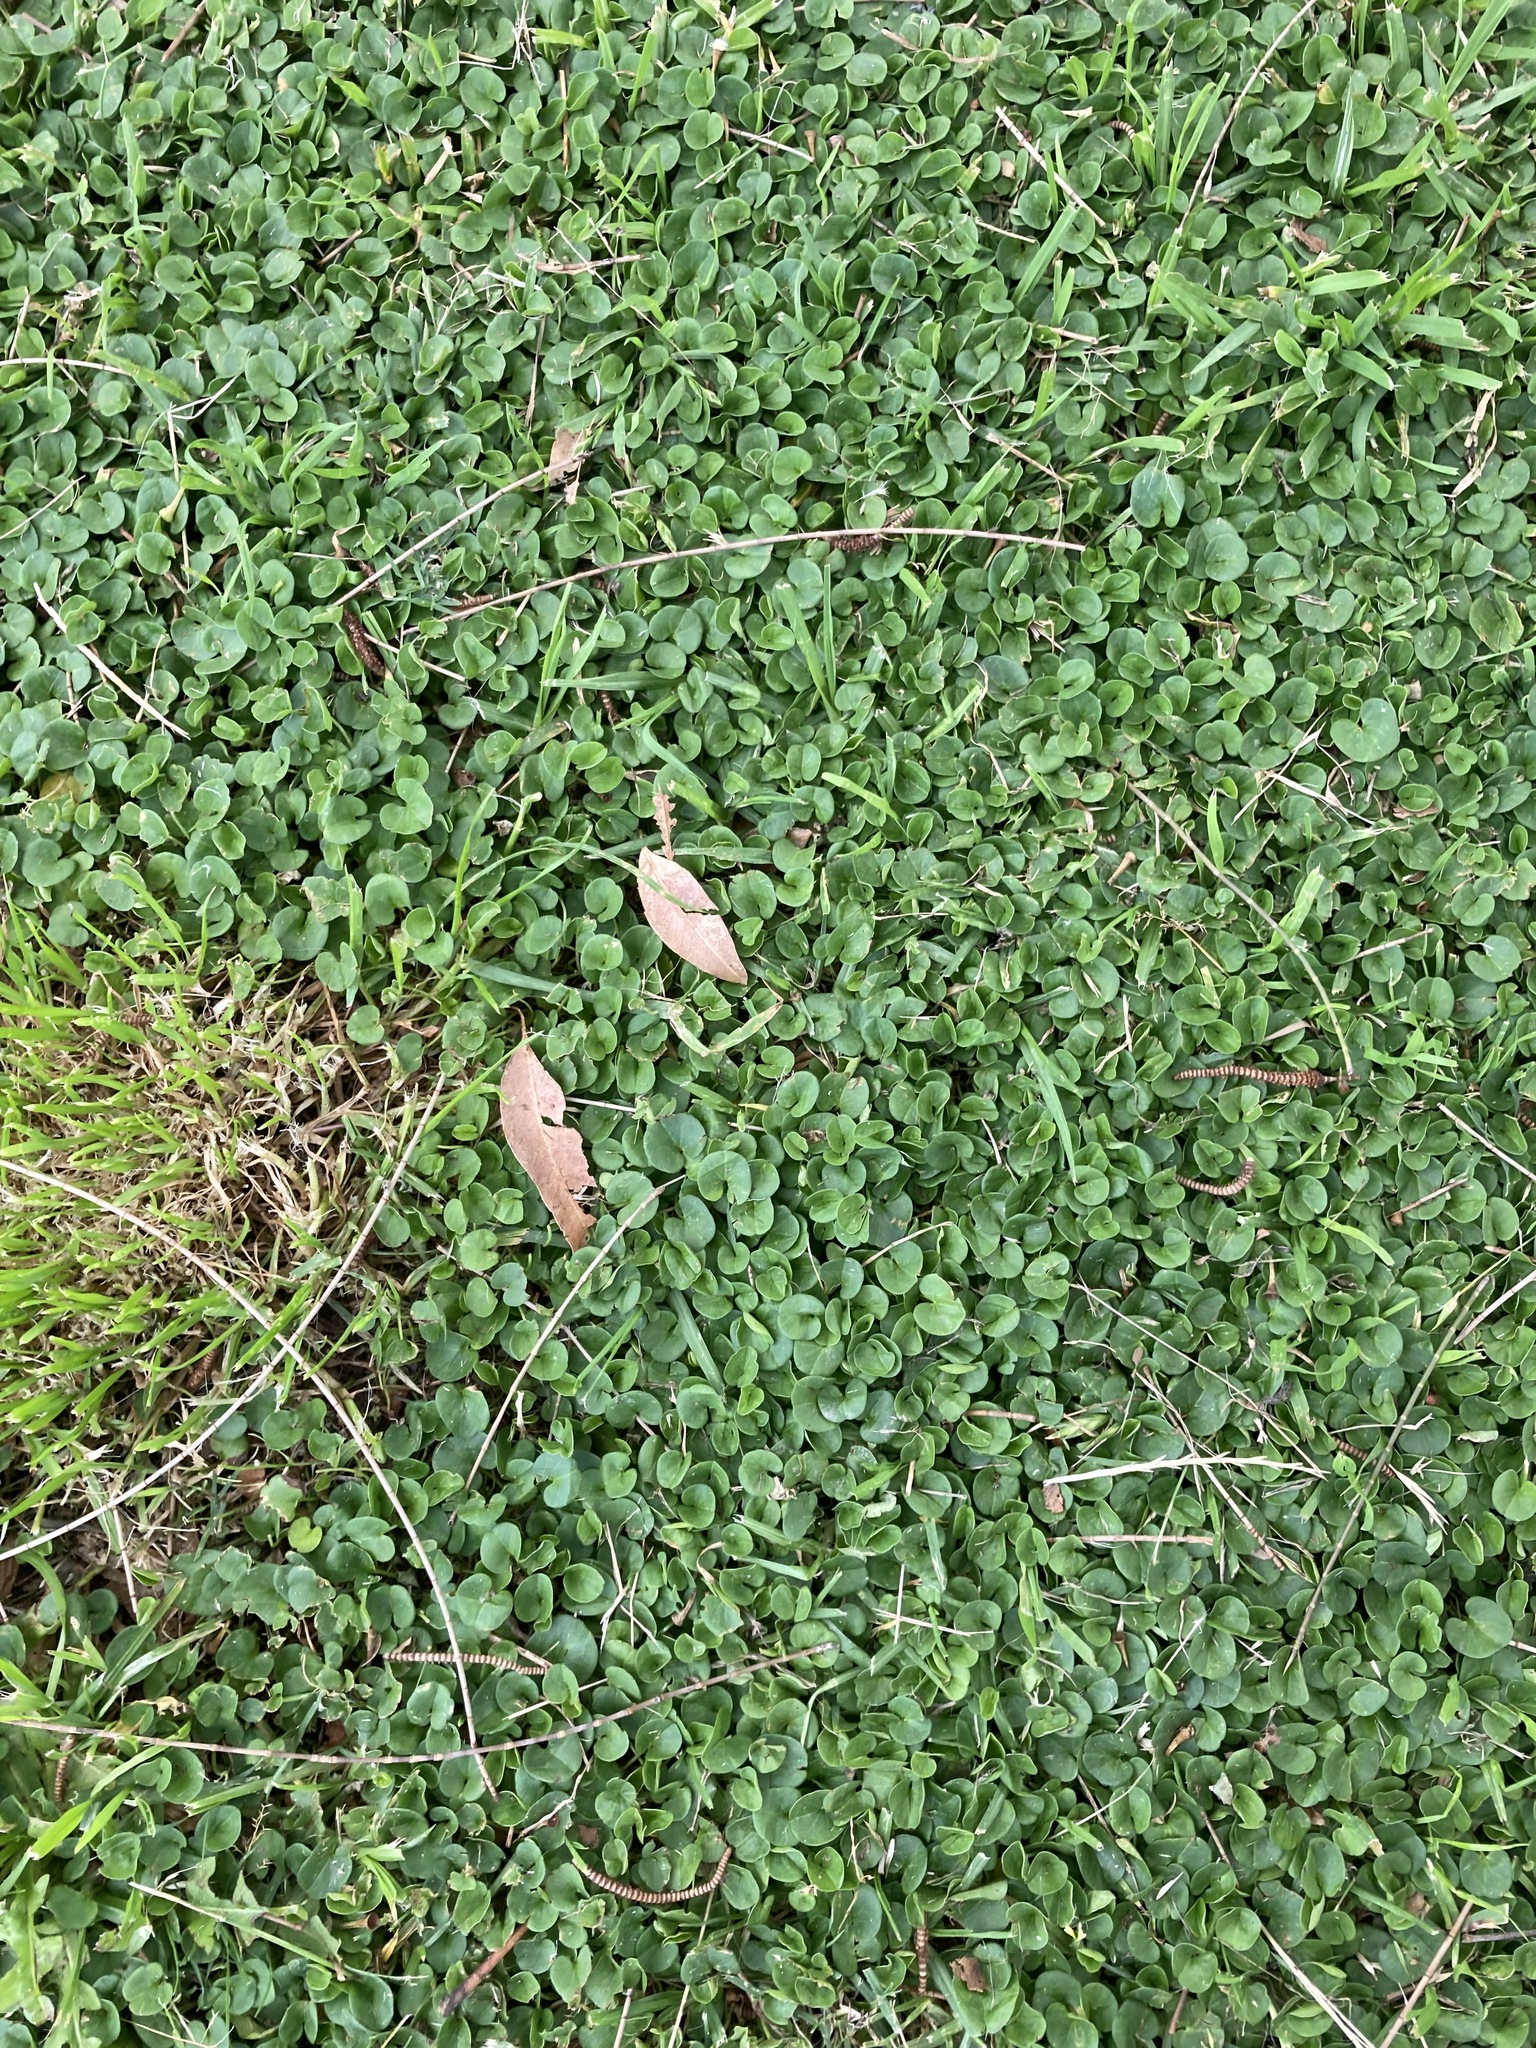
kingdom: Plantae
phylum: Tracheophyta
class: Magnoliopsida
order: Solanales
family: Convolvulaceae
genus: Dichondra
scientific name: Dichondra repens
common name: Kidneyweed
